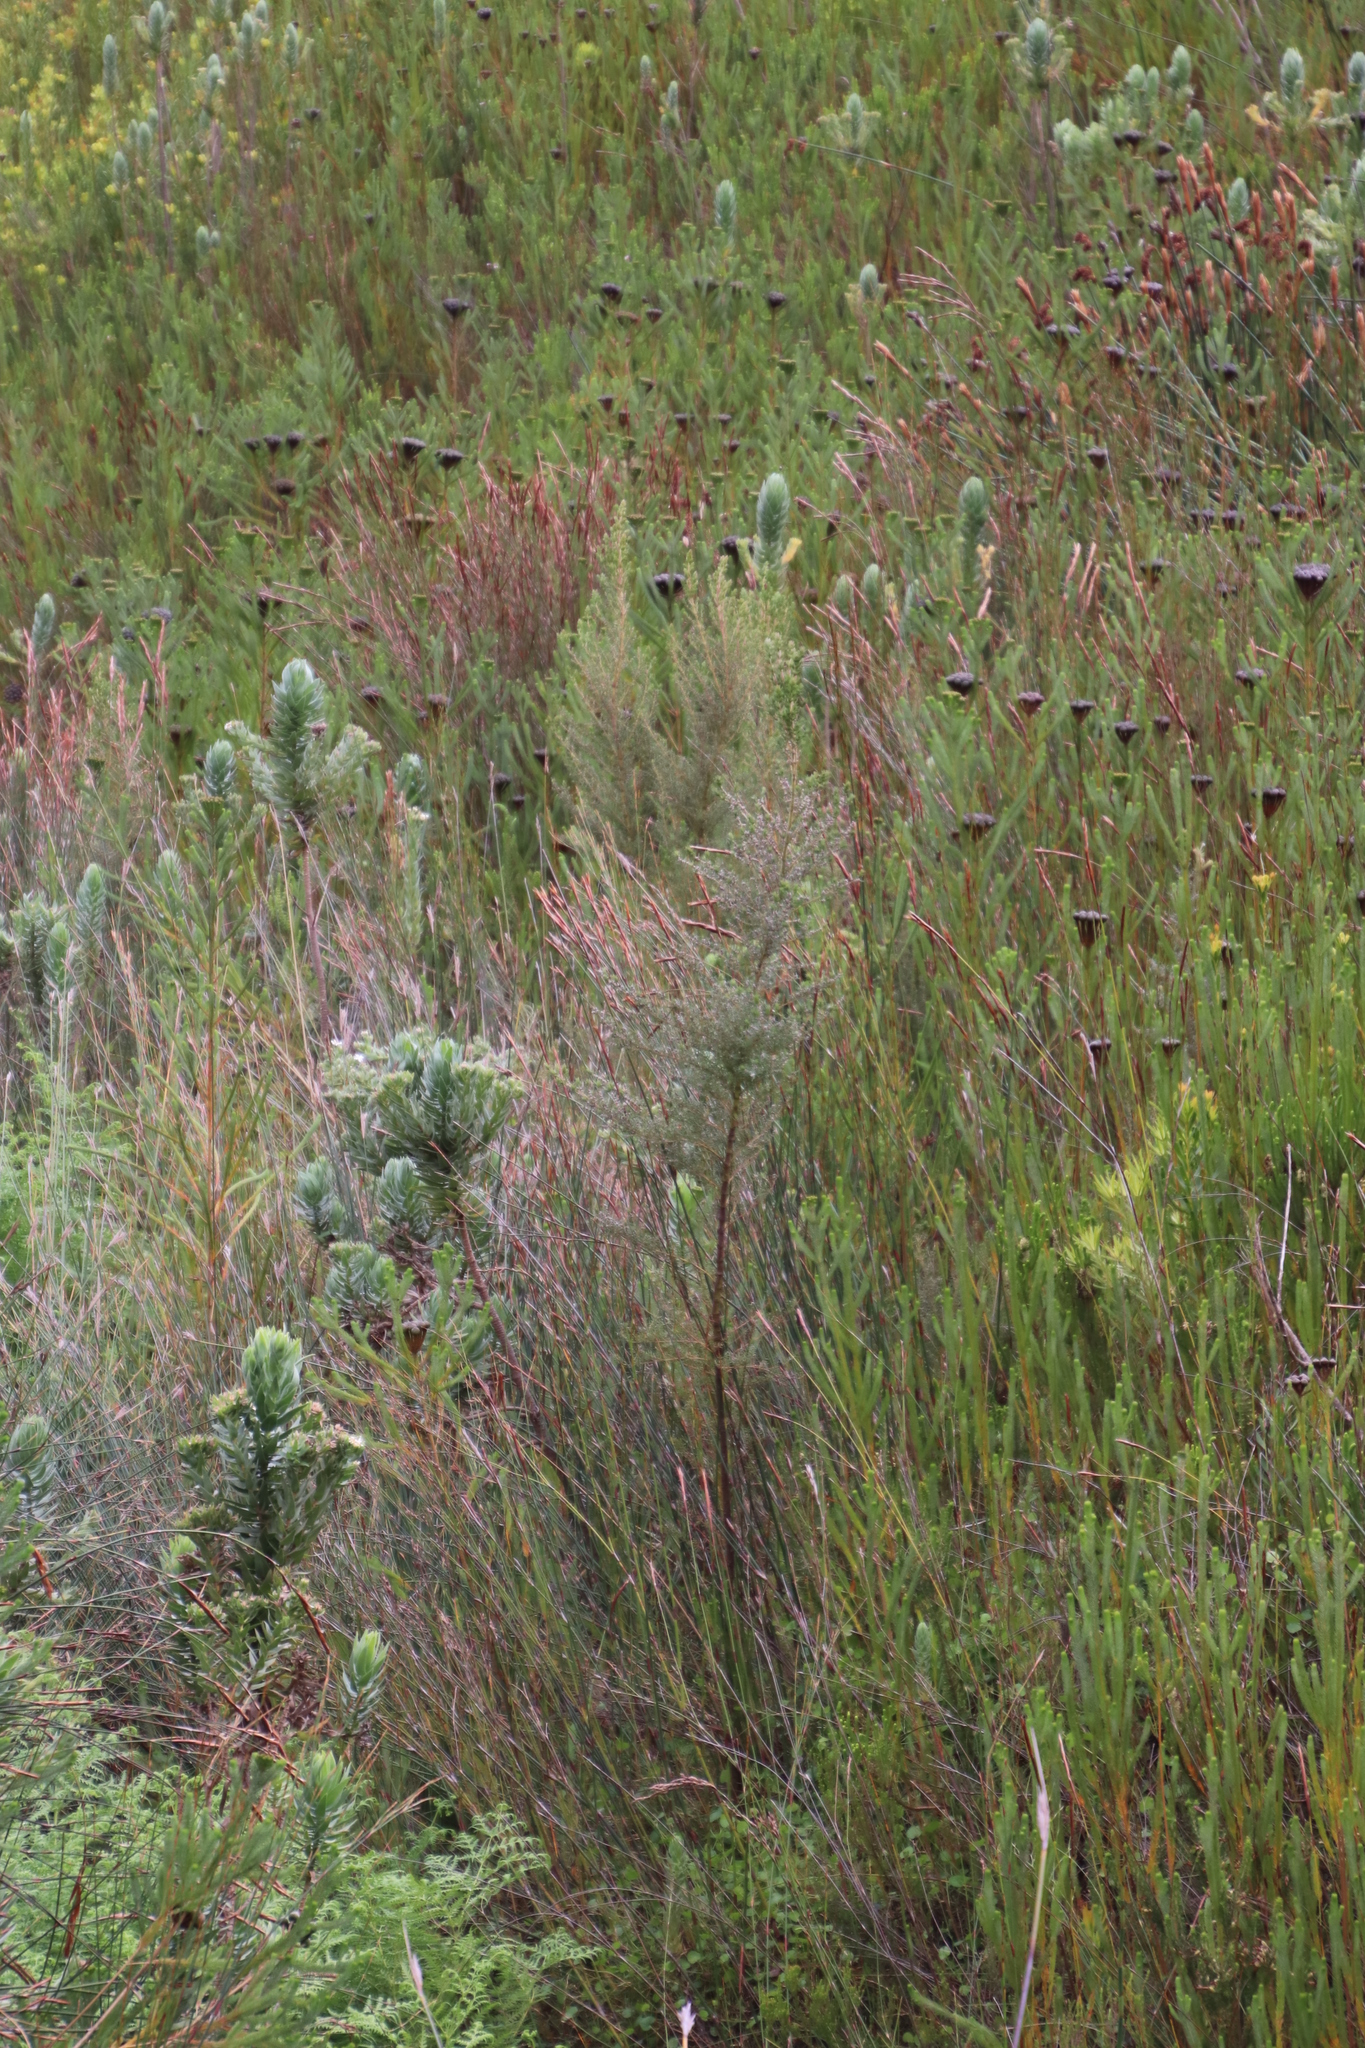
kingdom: Plantae
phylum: Tracheophyta
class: Magnoliopsida
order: Cornales
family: Grubbiaceae
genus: Grubbia
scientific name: Grubbia rosmarinifolia
